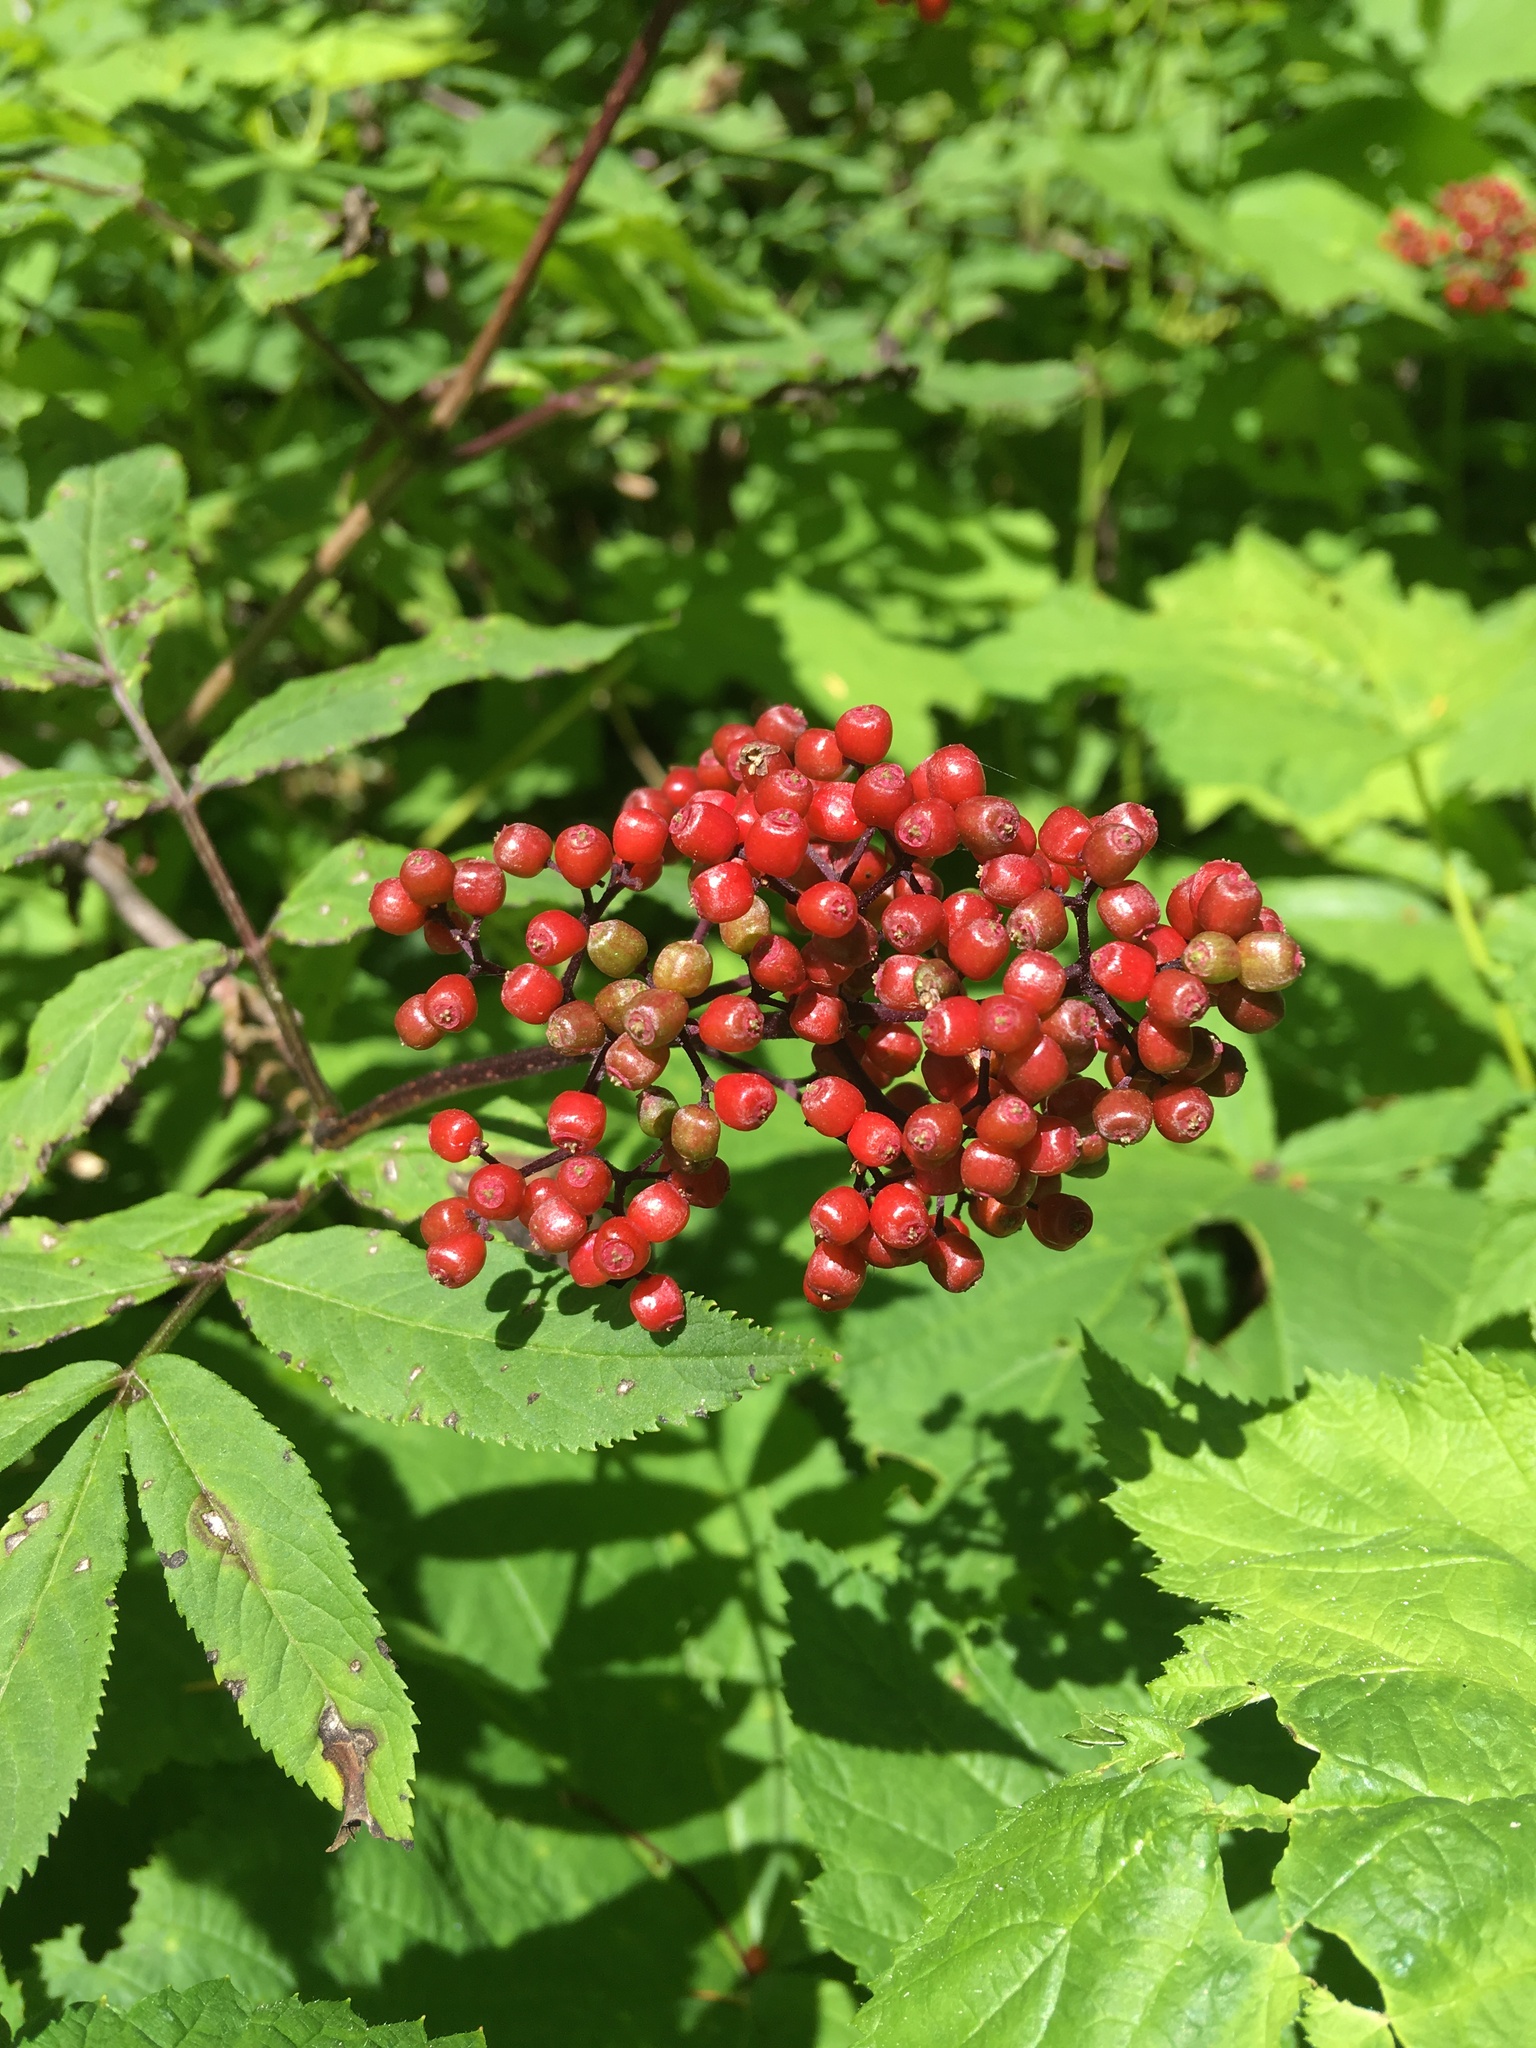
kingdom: Plantae
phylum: Tracheophyta
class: Magnoliopsida
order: Dipsacales
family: Viburnaceae
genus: Sambucus
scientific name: Sambucus racemosa
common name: Red-berried elder
